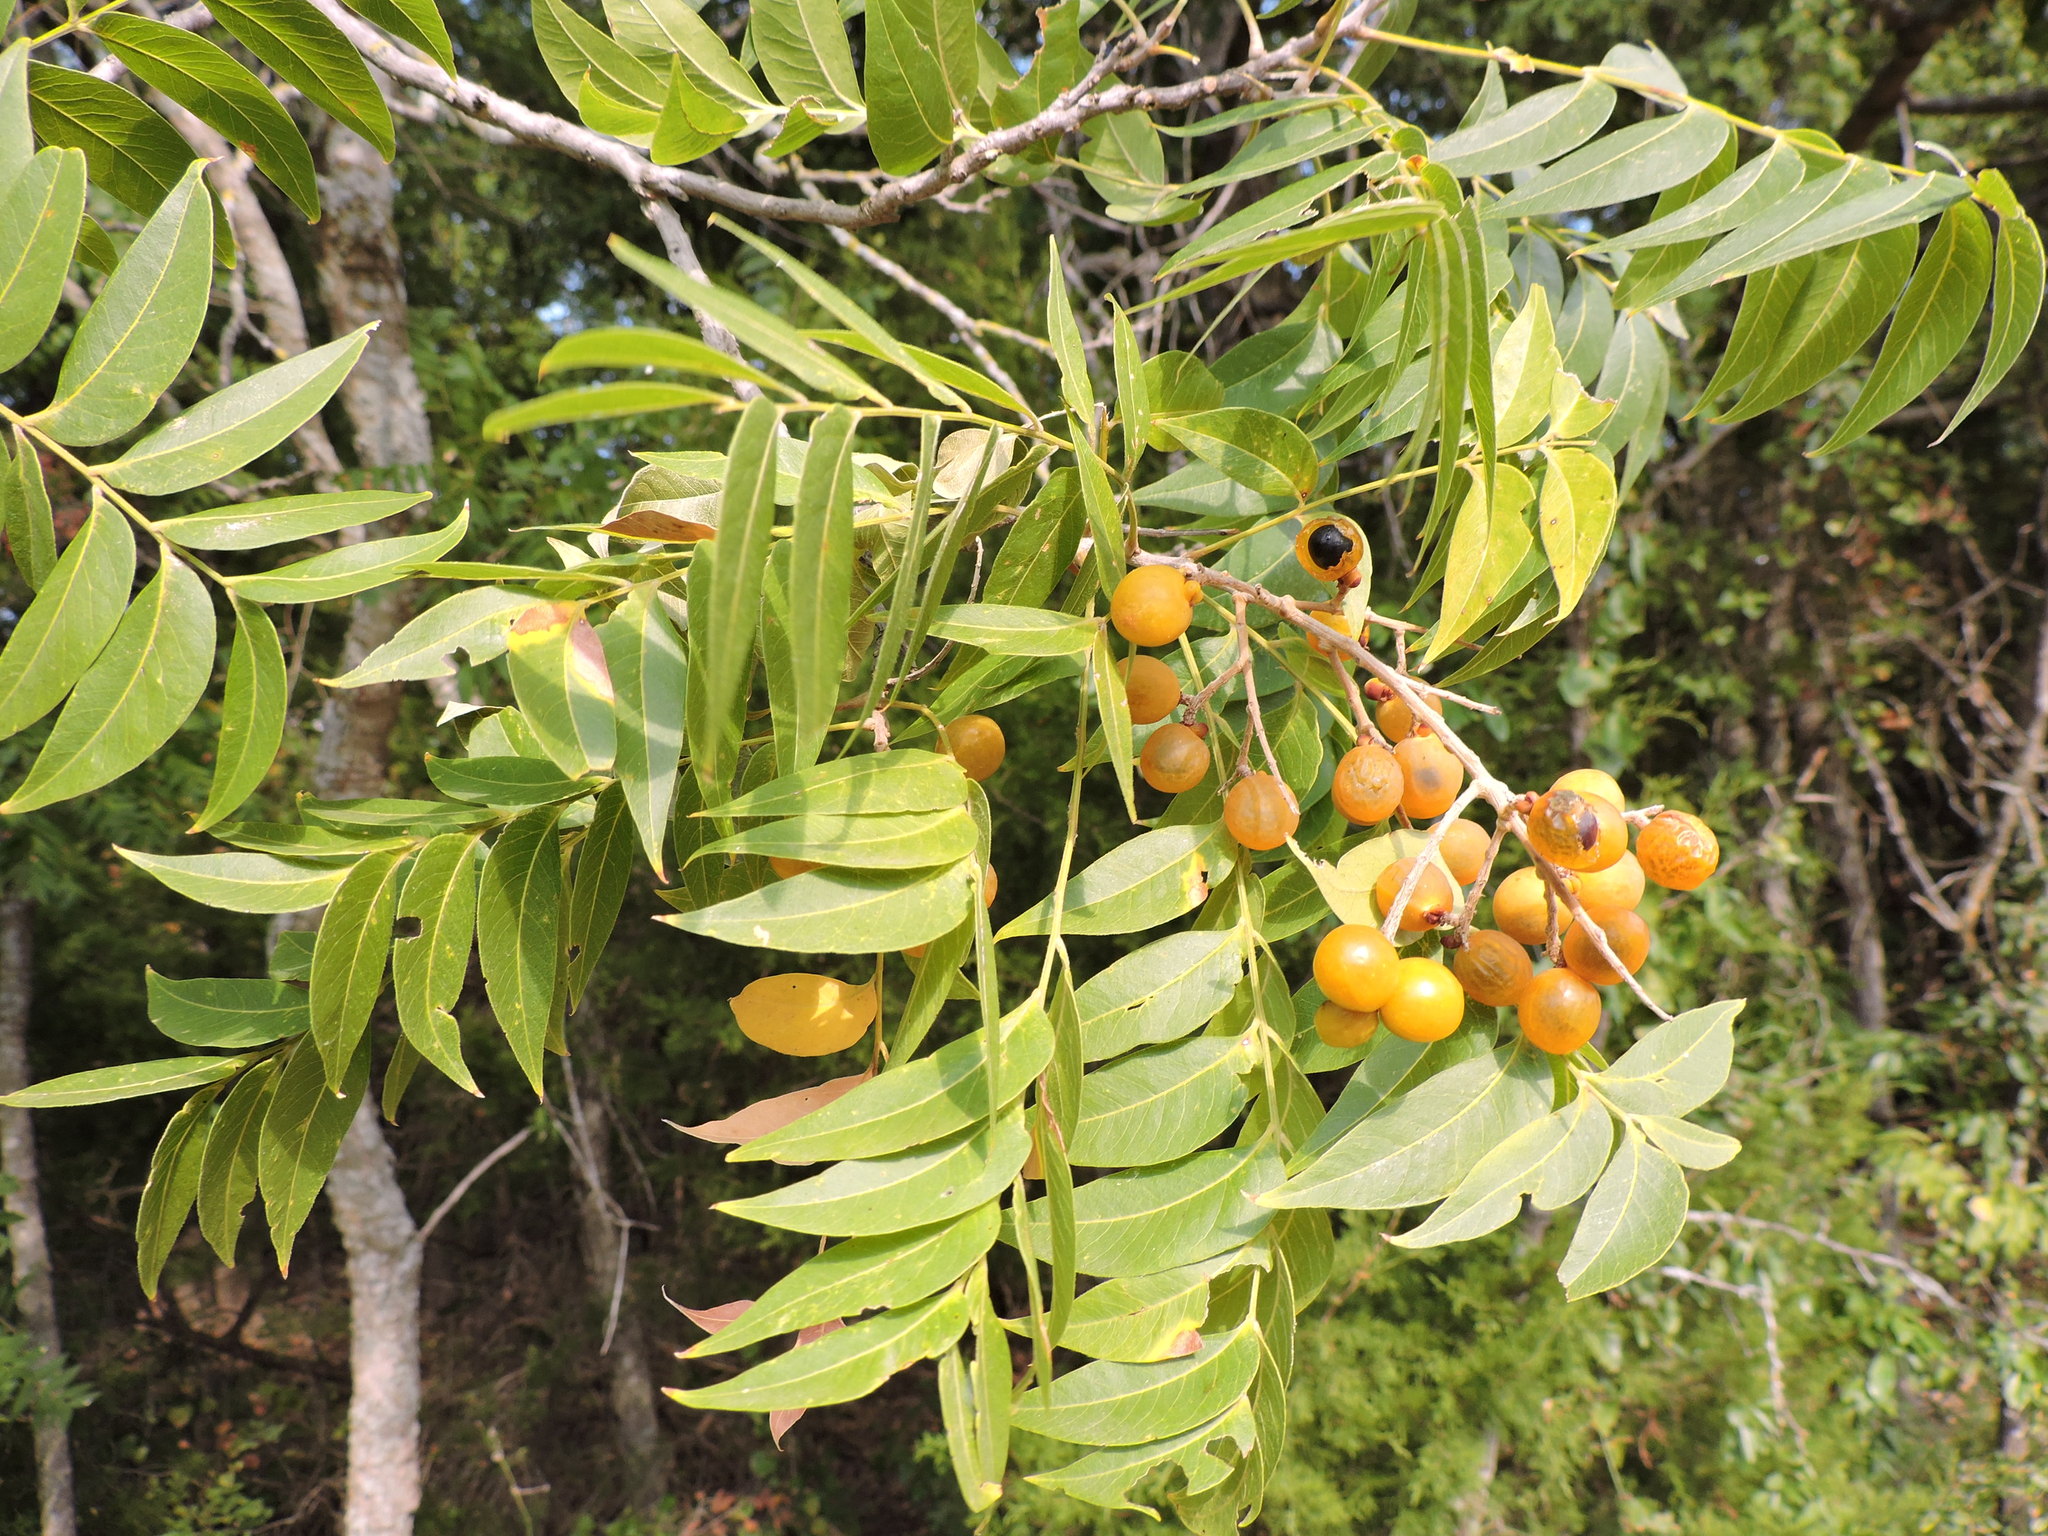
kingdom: Plantae
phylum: Tracheophyta
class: Magnoliopsida
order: Sapindales
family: Sapindaceae
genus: Sapindus
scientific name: Sapindus drummondii
